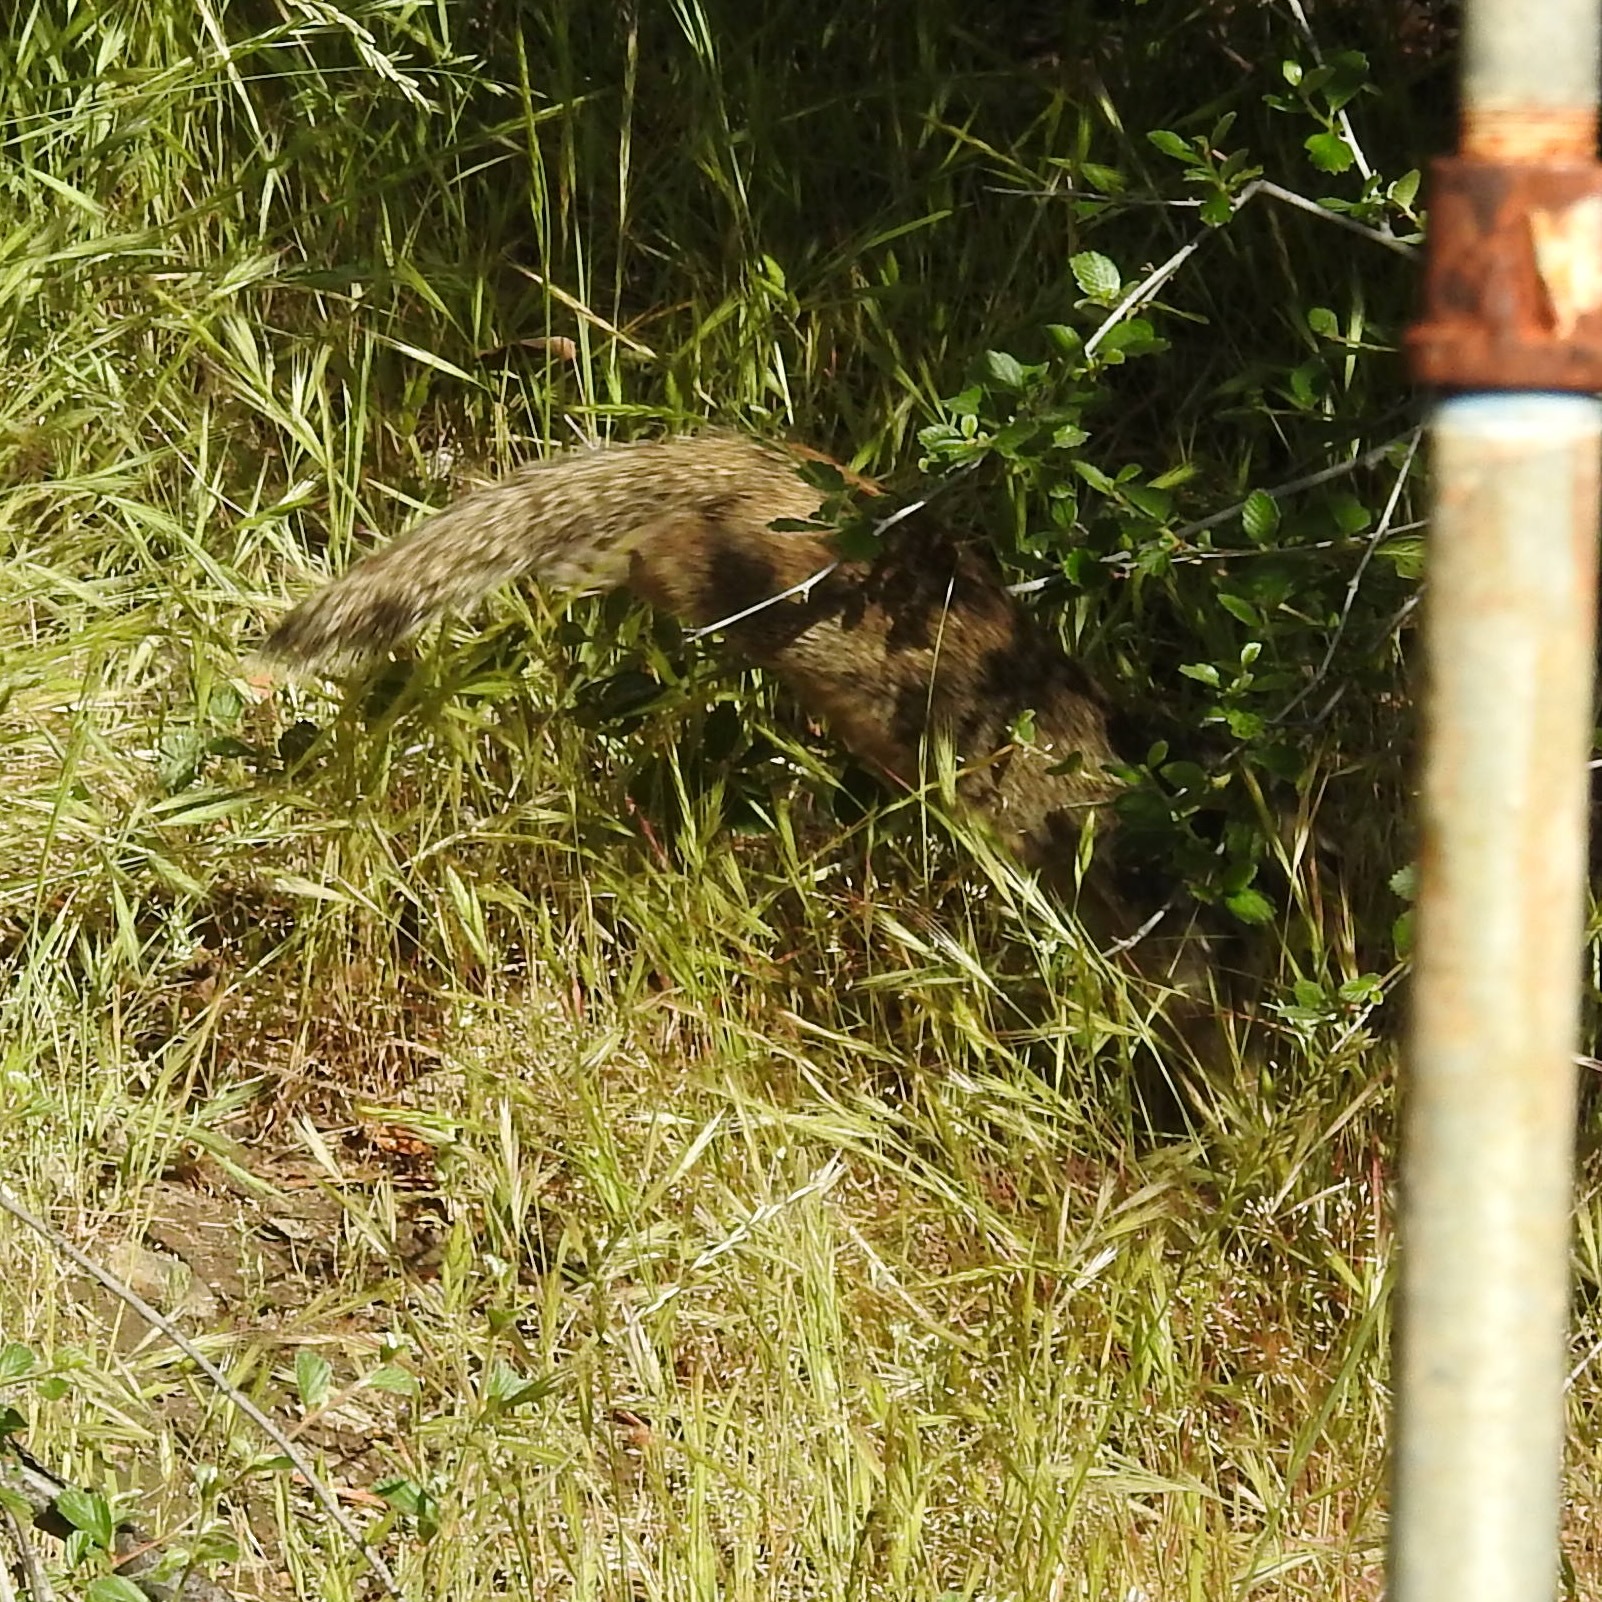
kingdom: Animalia
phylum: Chordata
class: Mammalia
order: Rodentia
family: Sciuridae
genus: Otospermophilus
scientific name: Otospermophilus beecheyi
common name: California ground squirrel
